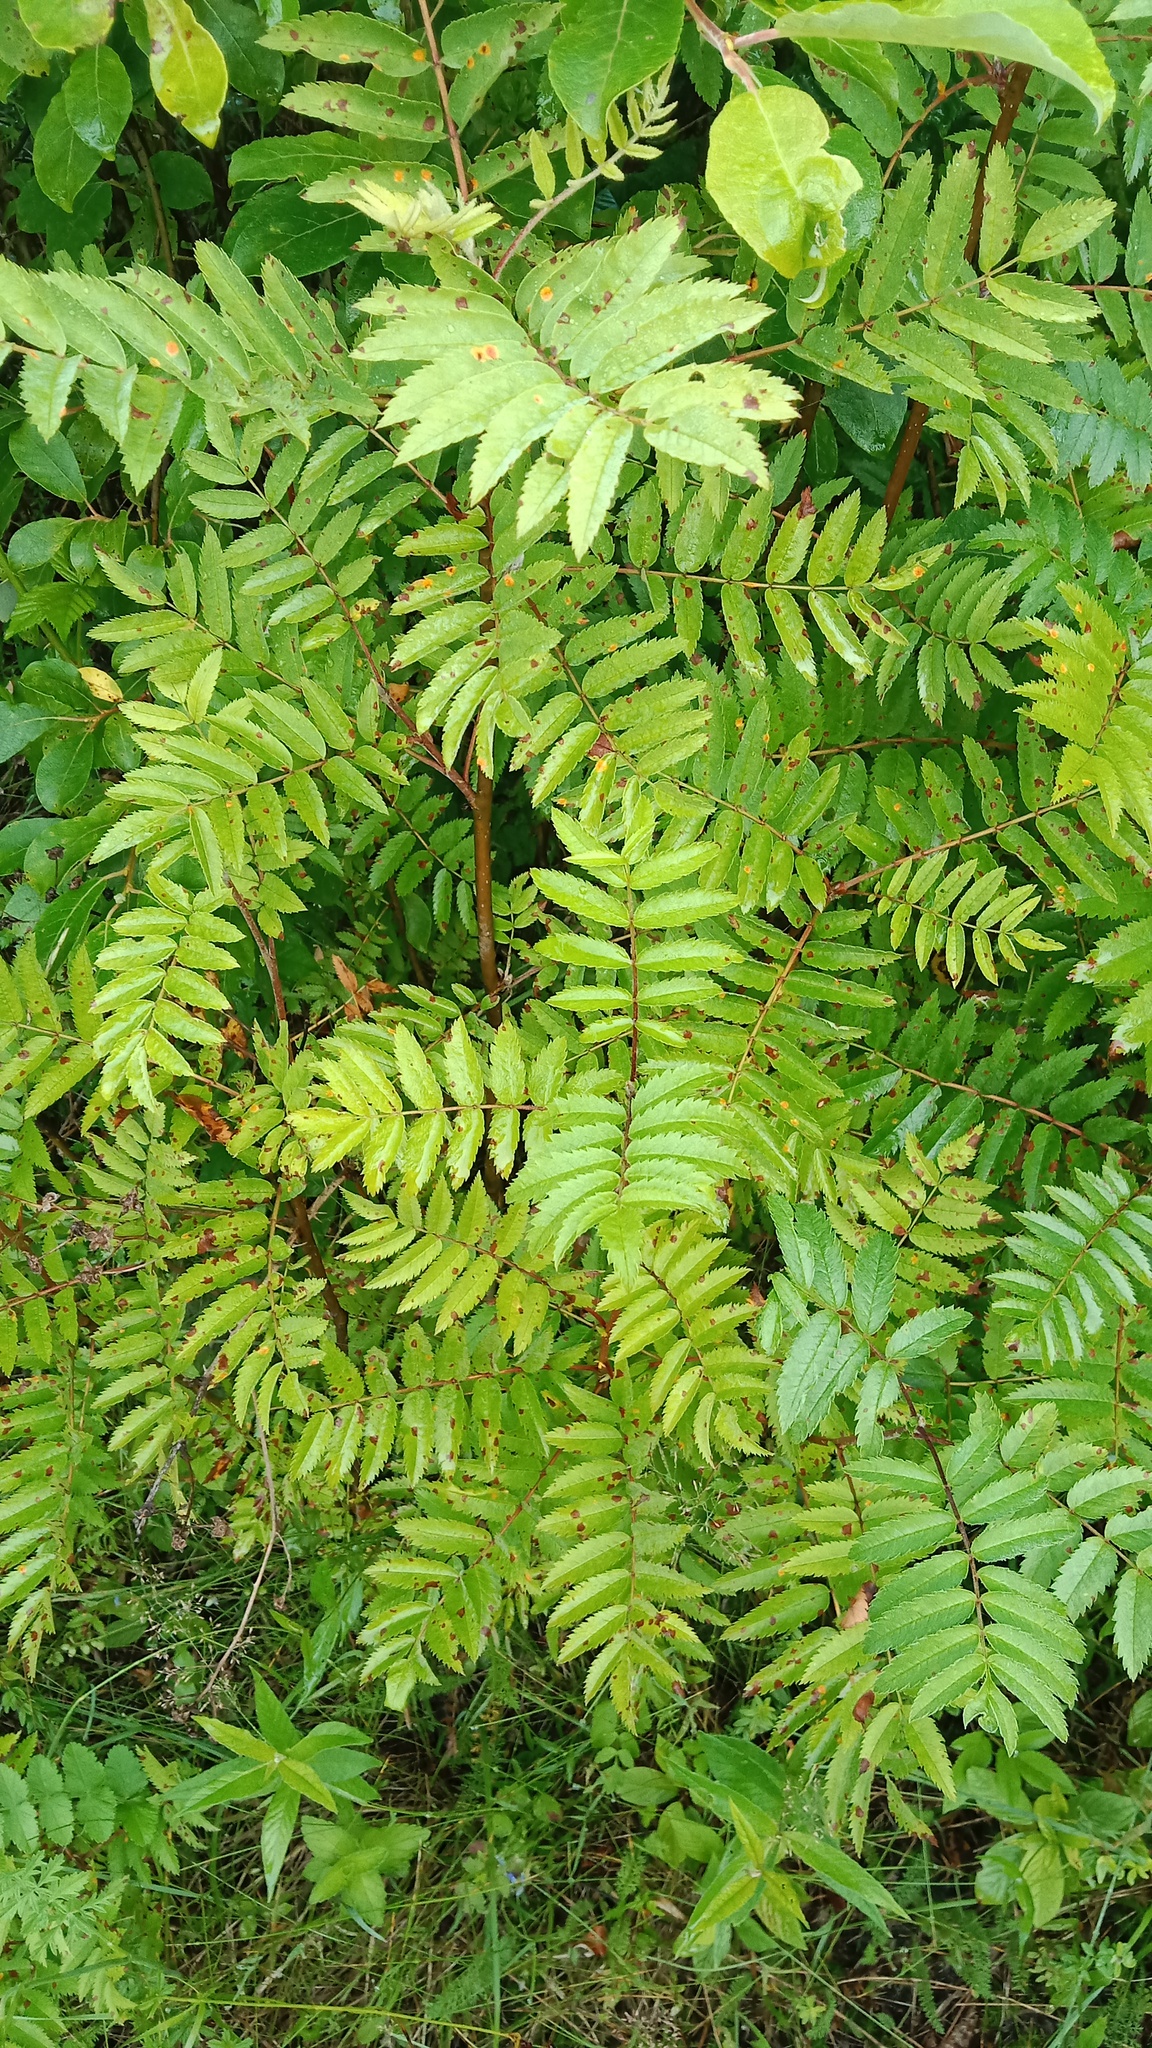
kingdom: Plantae
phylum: Tracheophyta
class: Magnoliopsida
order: Rosales
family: Rosaceae
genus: Sorbus
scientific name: Sorbus aucuparia
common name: Rowan
